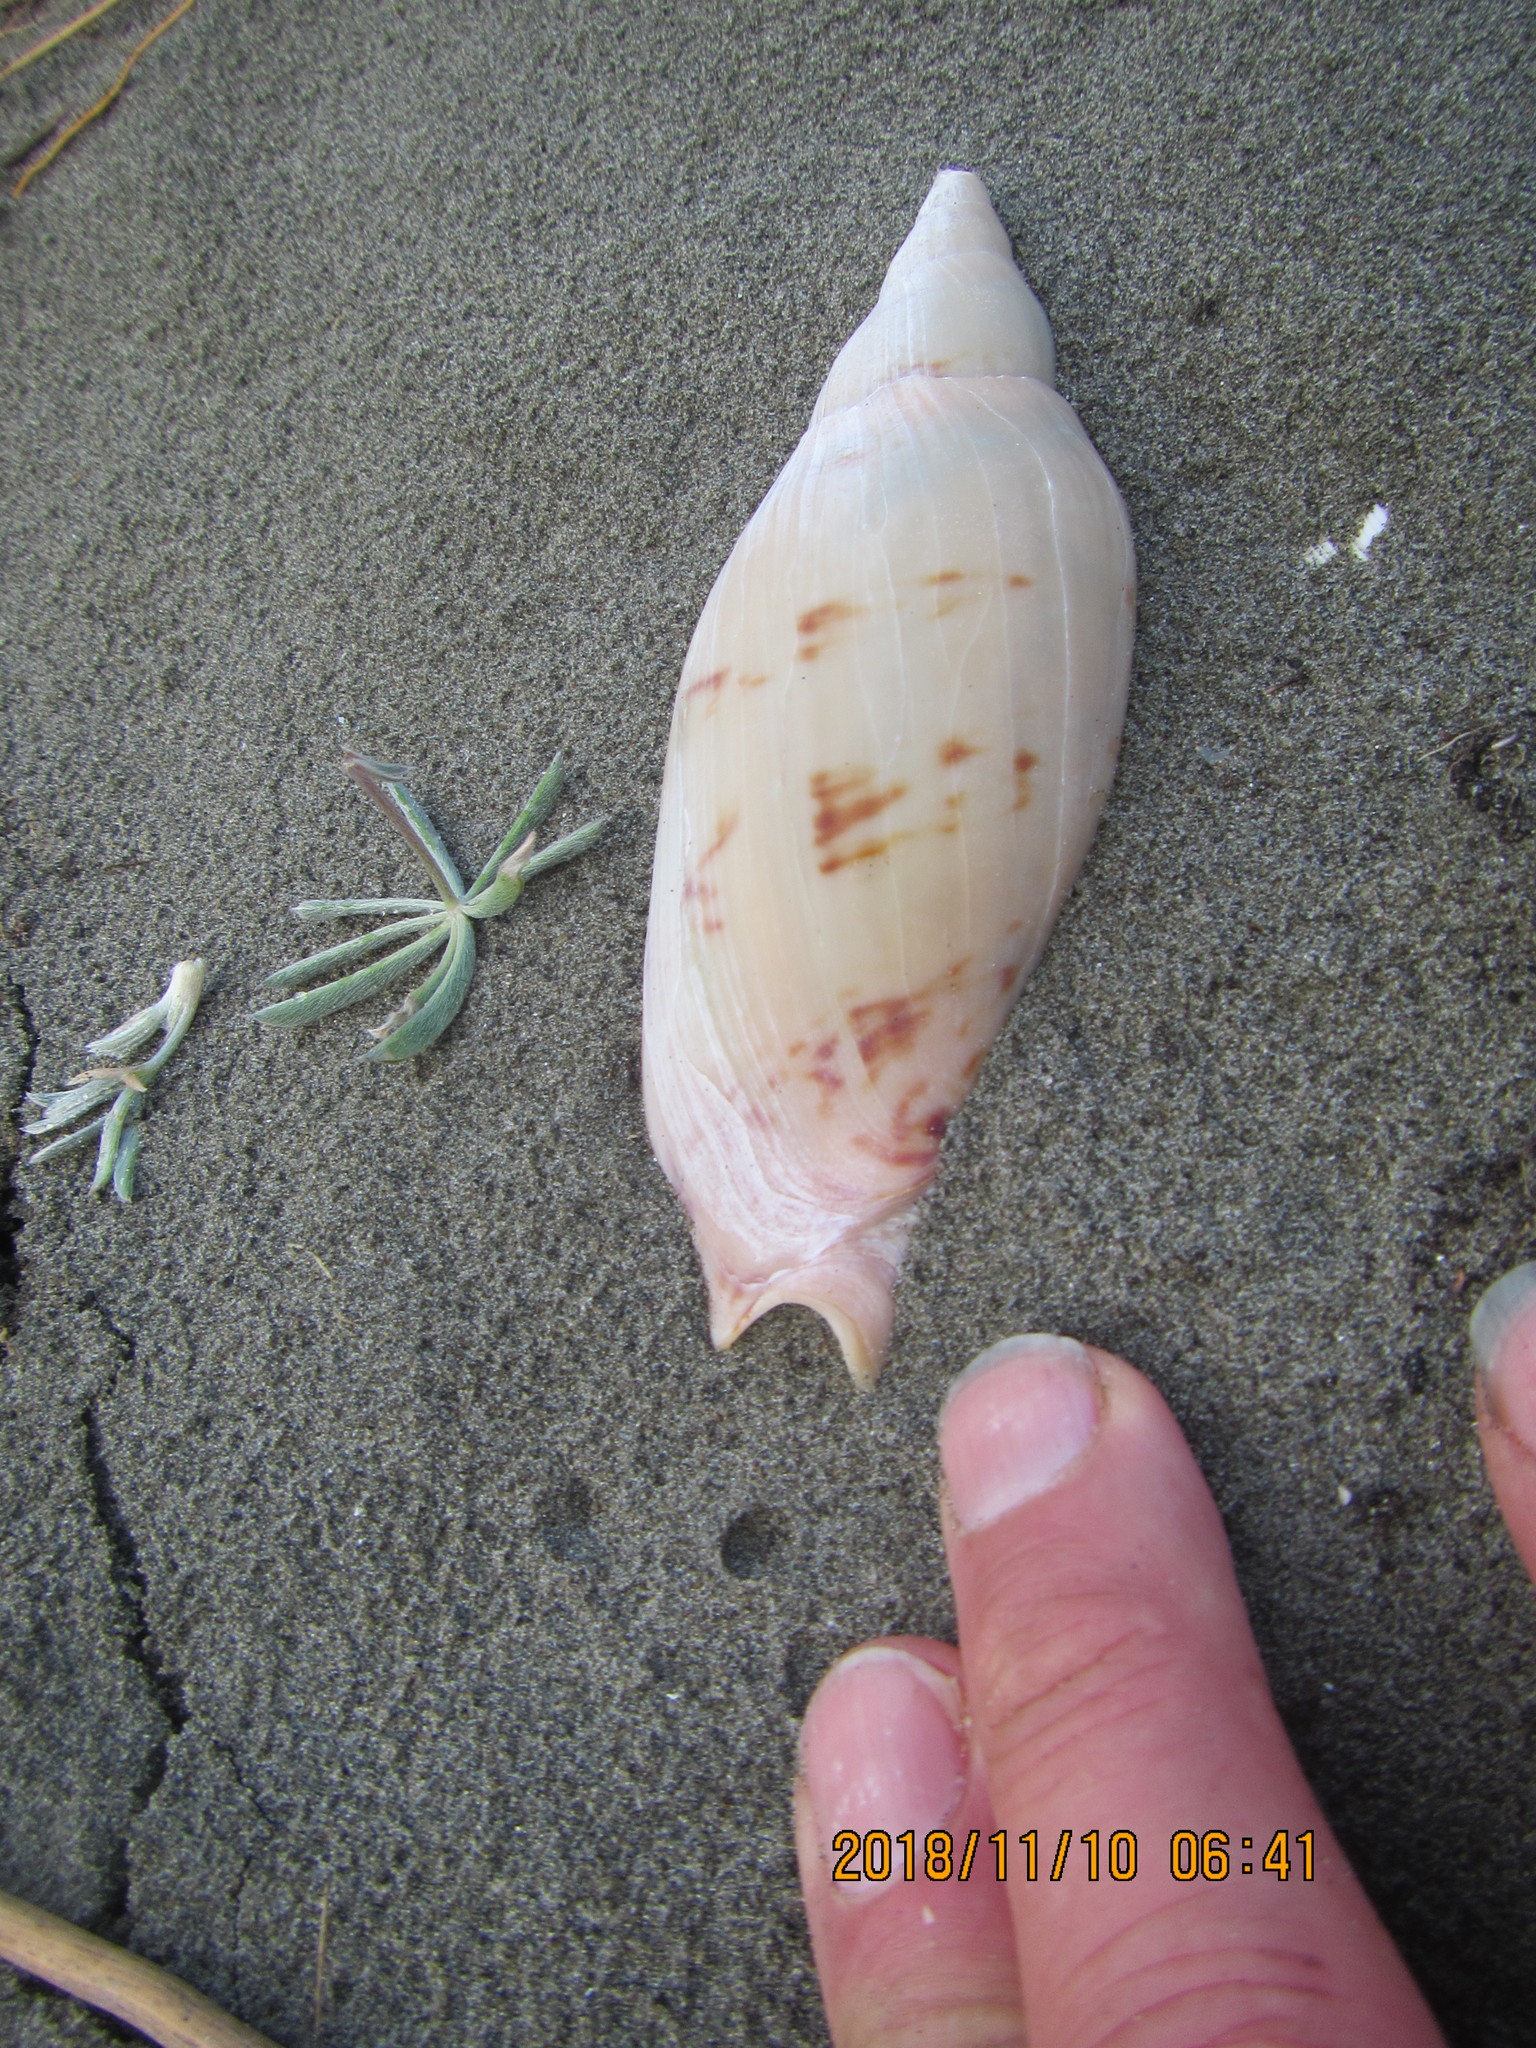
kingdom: Animalia
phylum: Mollusca
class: Gastropoda
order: Neogastropoda
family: Volutidae
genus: Alcithoe
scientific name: Alcithoe arabica
